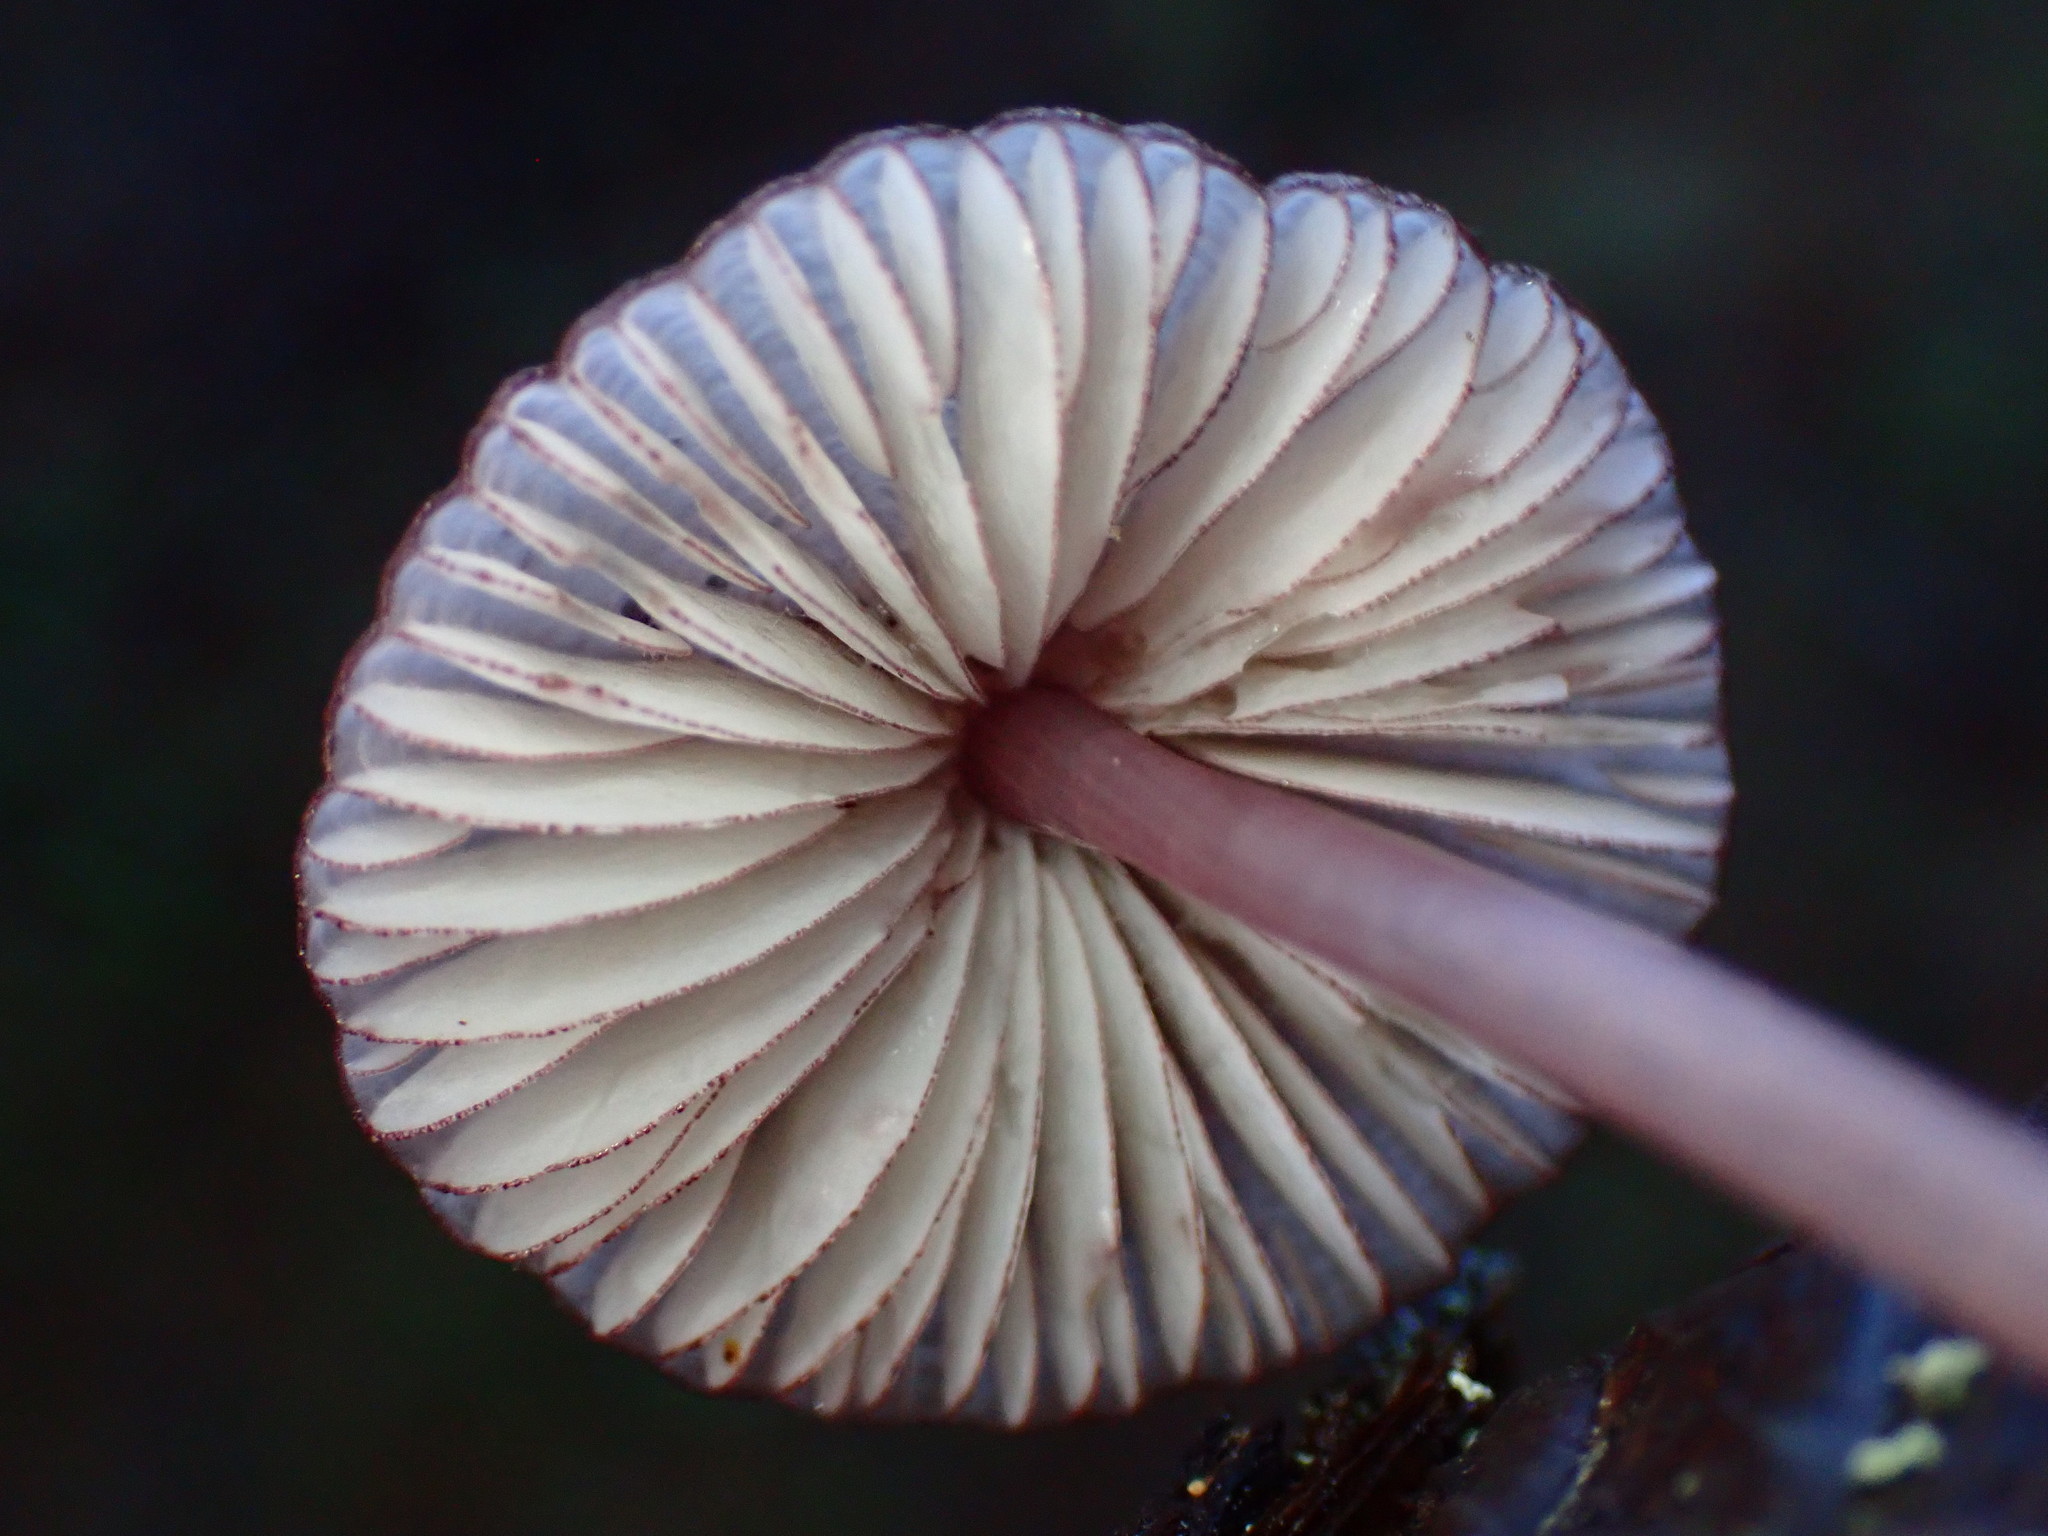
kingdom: Fungi
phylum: Basidiomycota
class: Agaricomycetes
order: Agaricales
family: Mycenaceae
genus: Mycena
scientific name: Mycena purpureofusca
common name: Purple edge bonnet
